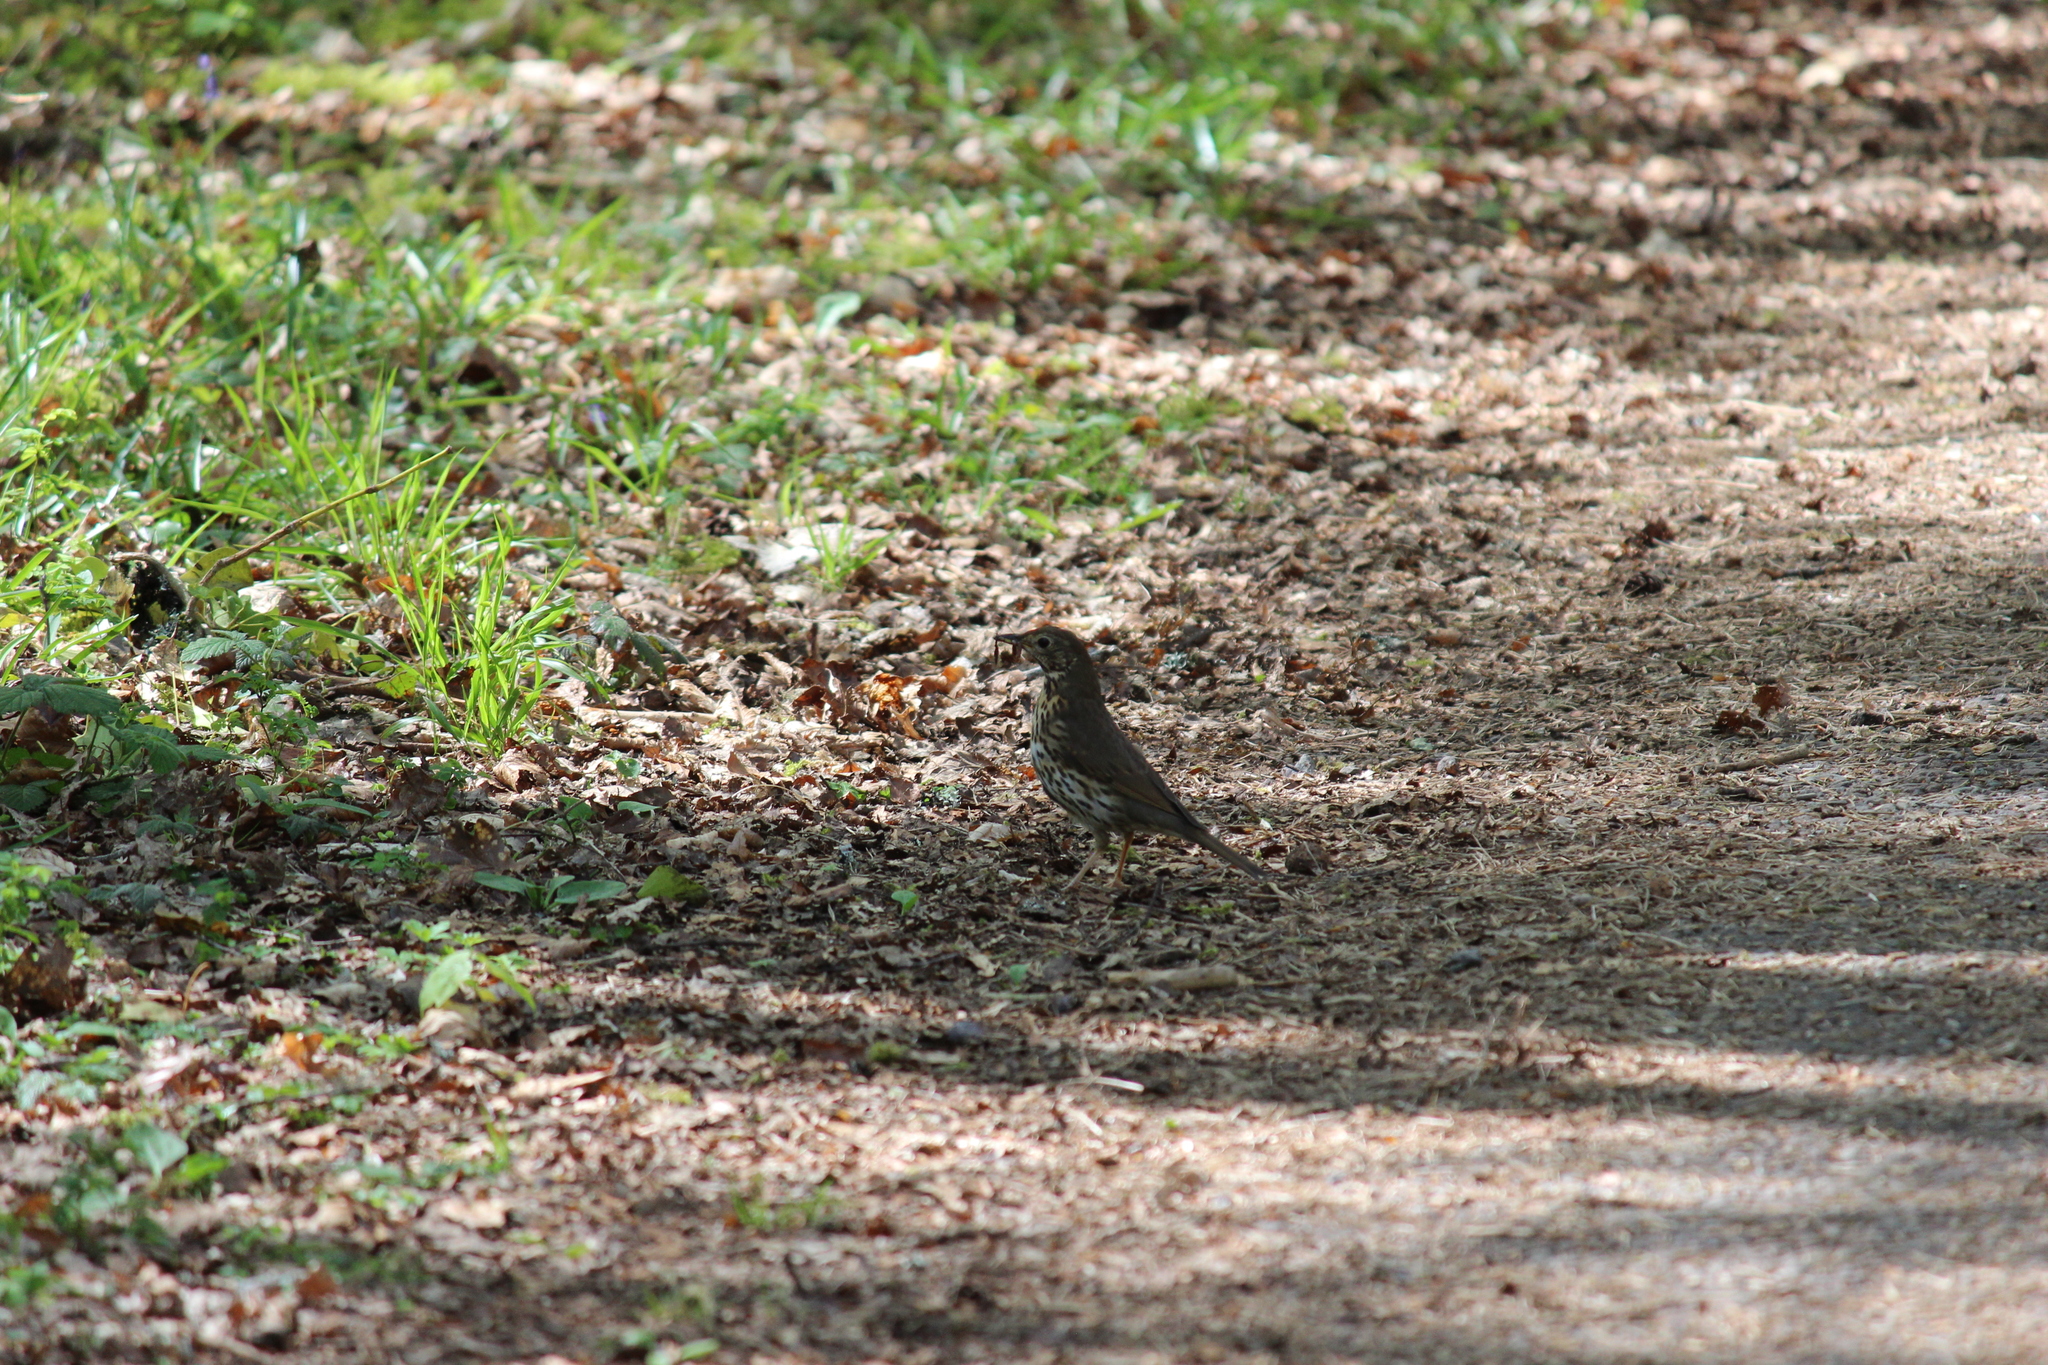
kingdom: Animalia
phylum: Chordata
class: Aves
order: Passeriformes
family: Turdidae
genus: Turdus
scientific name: Turdus philomelos
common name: Song thrush
